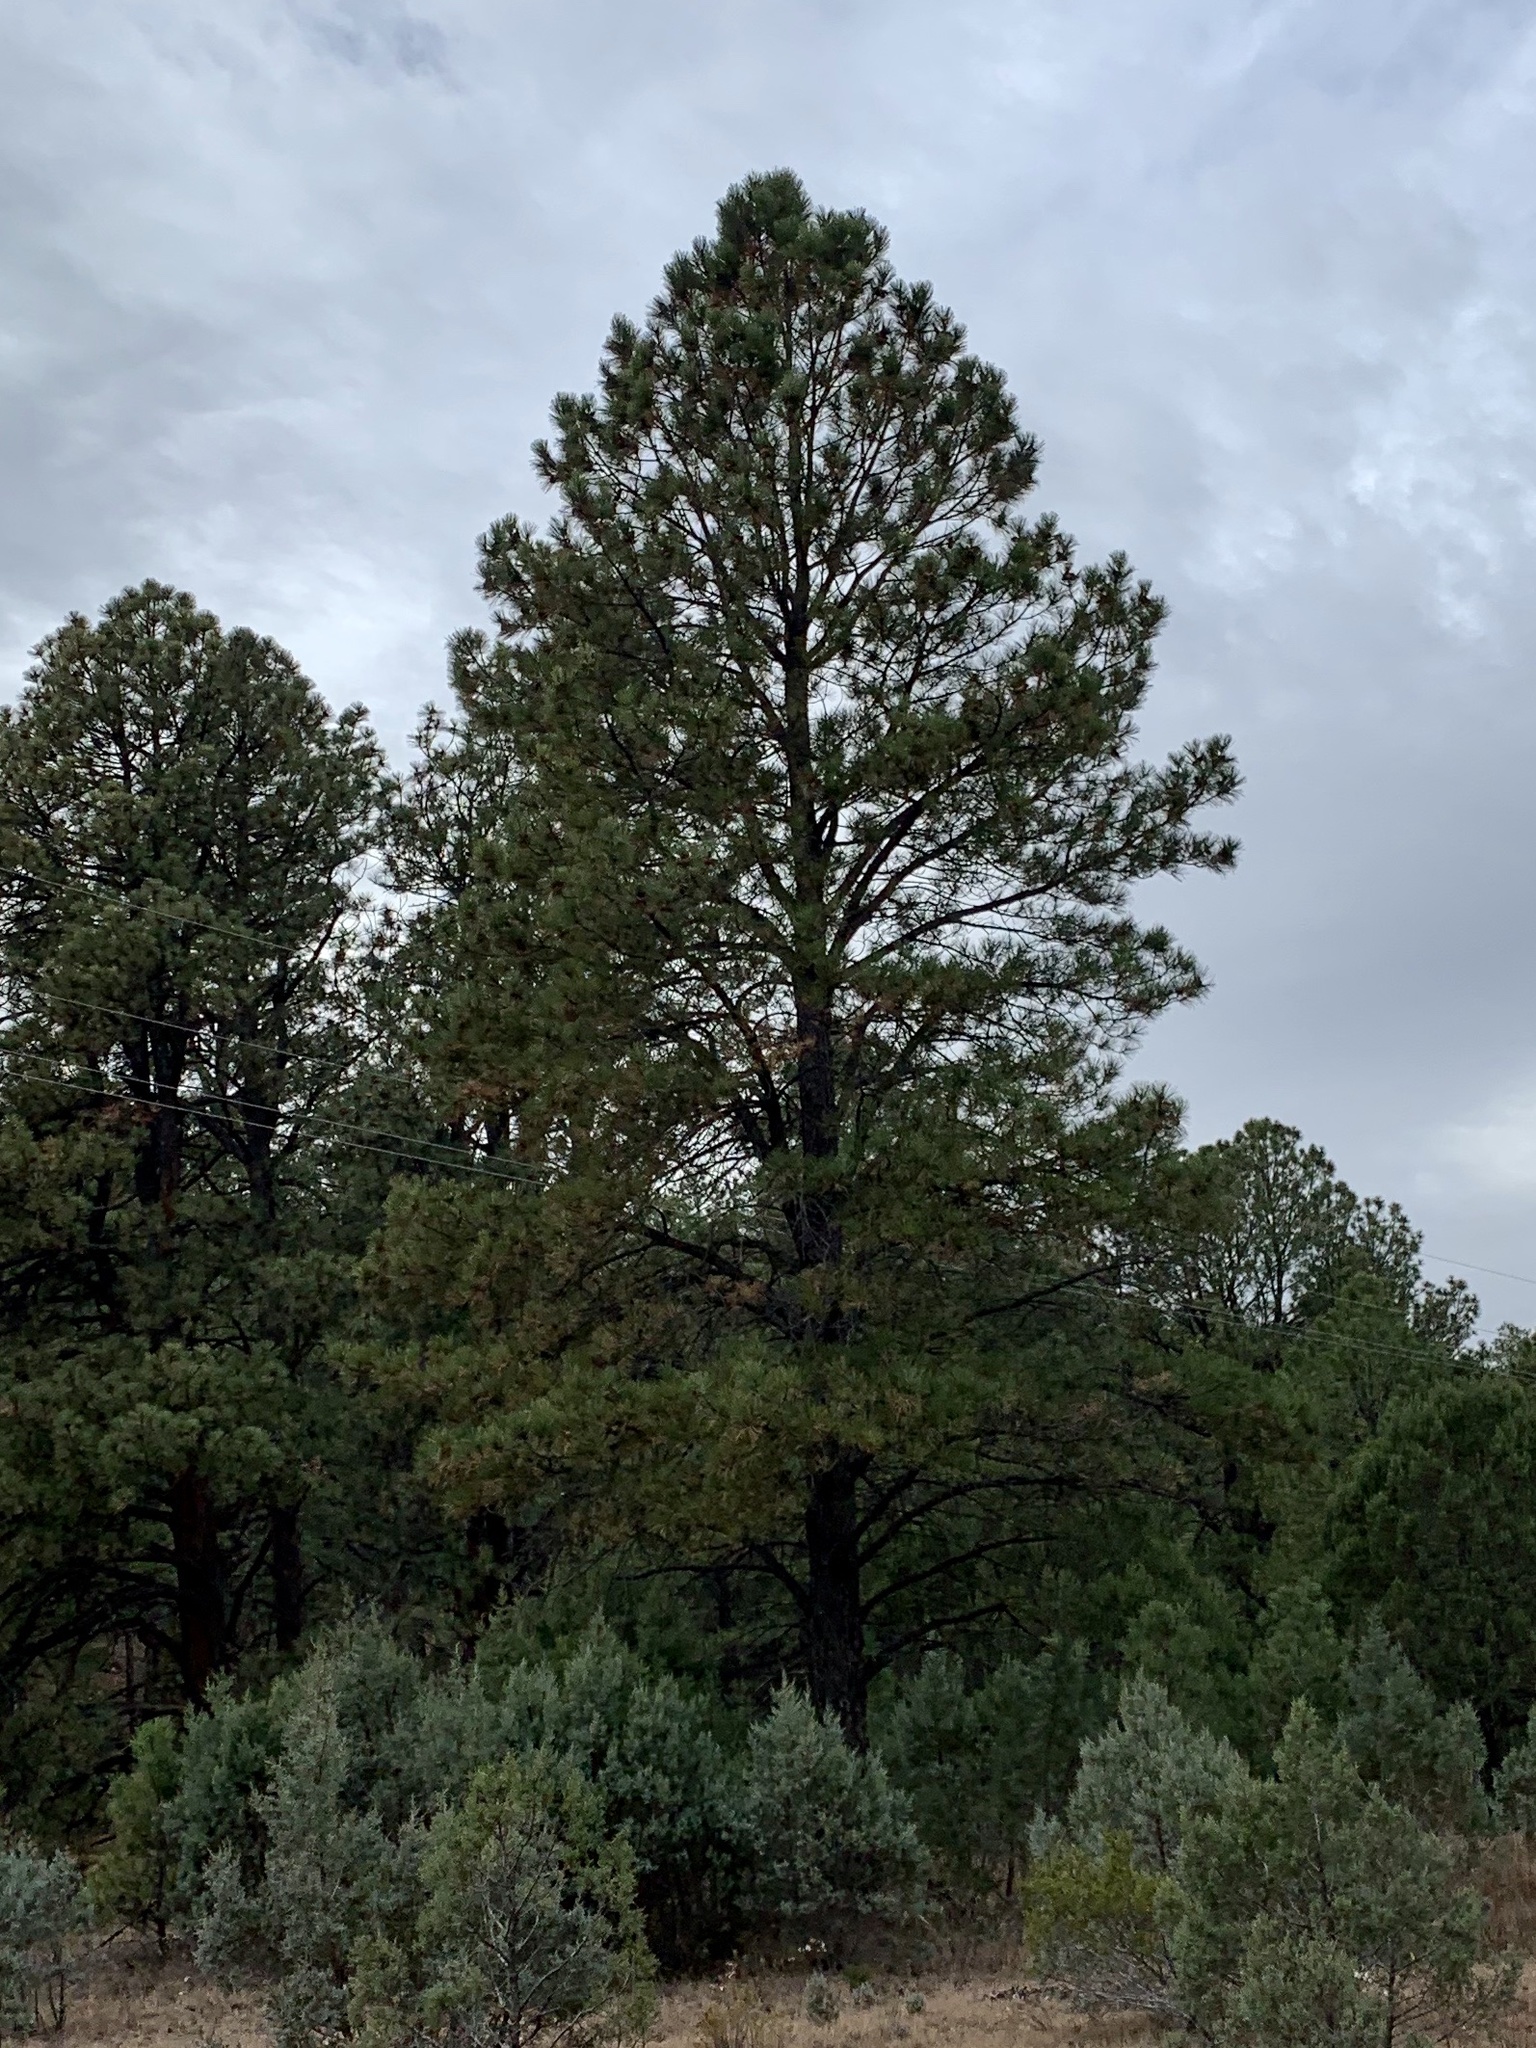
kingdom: Plantae
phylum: Tracheophyta
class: Pinopsida
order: Pinales
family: Pinaceae
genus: Pinus
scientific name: Pinus ponderosa
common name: Western yellow-pine
